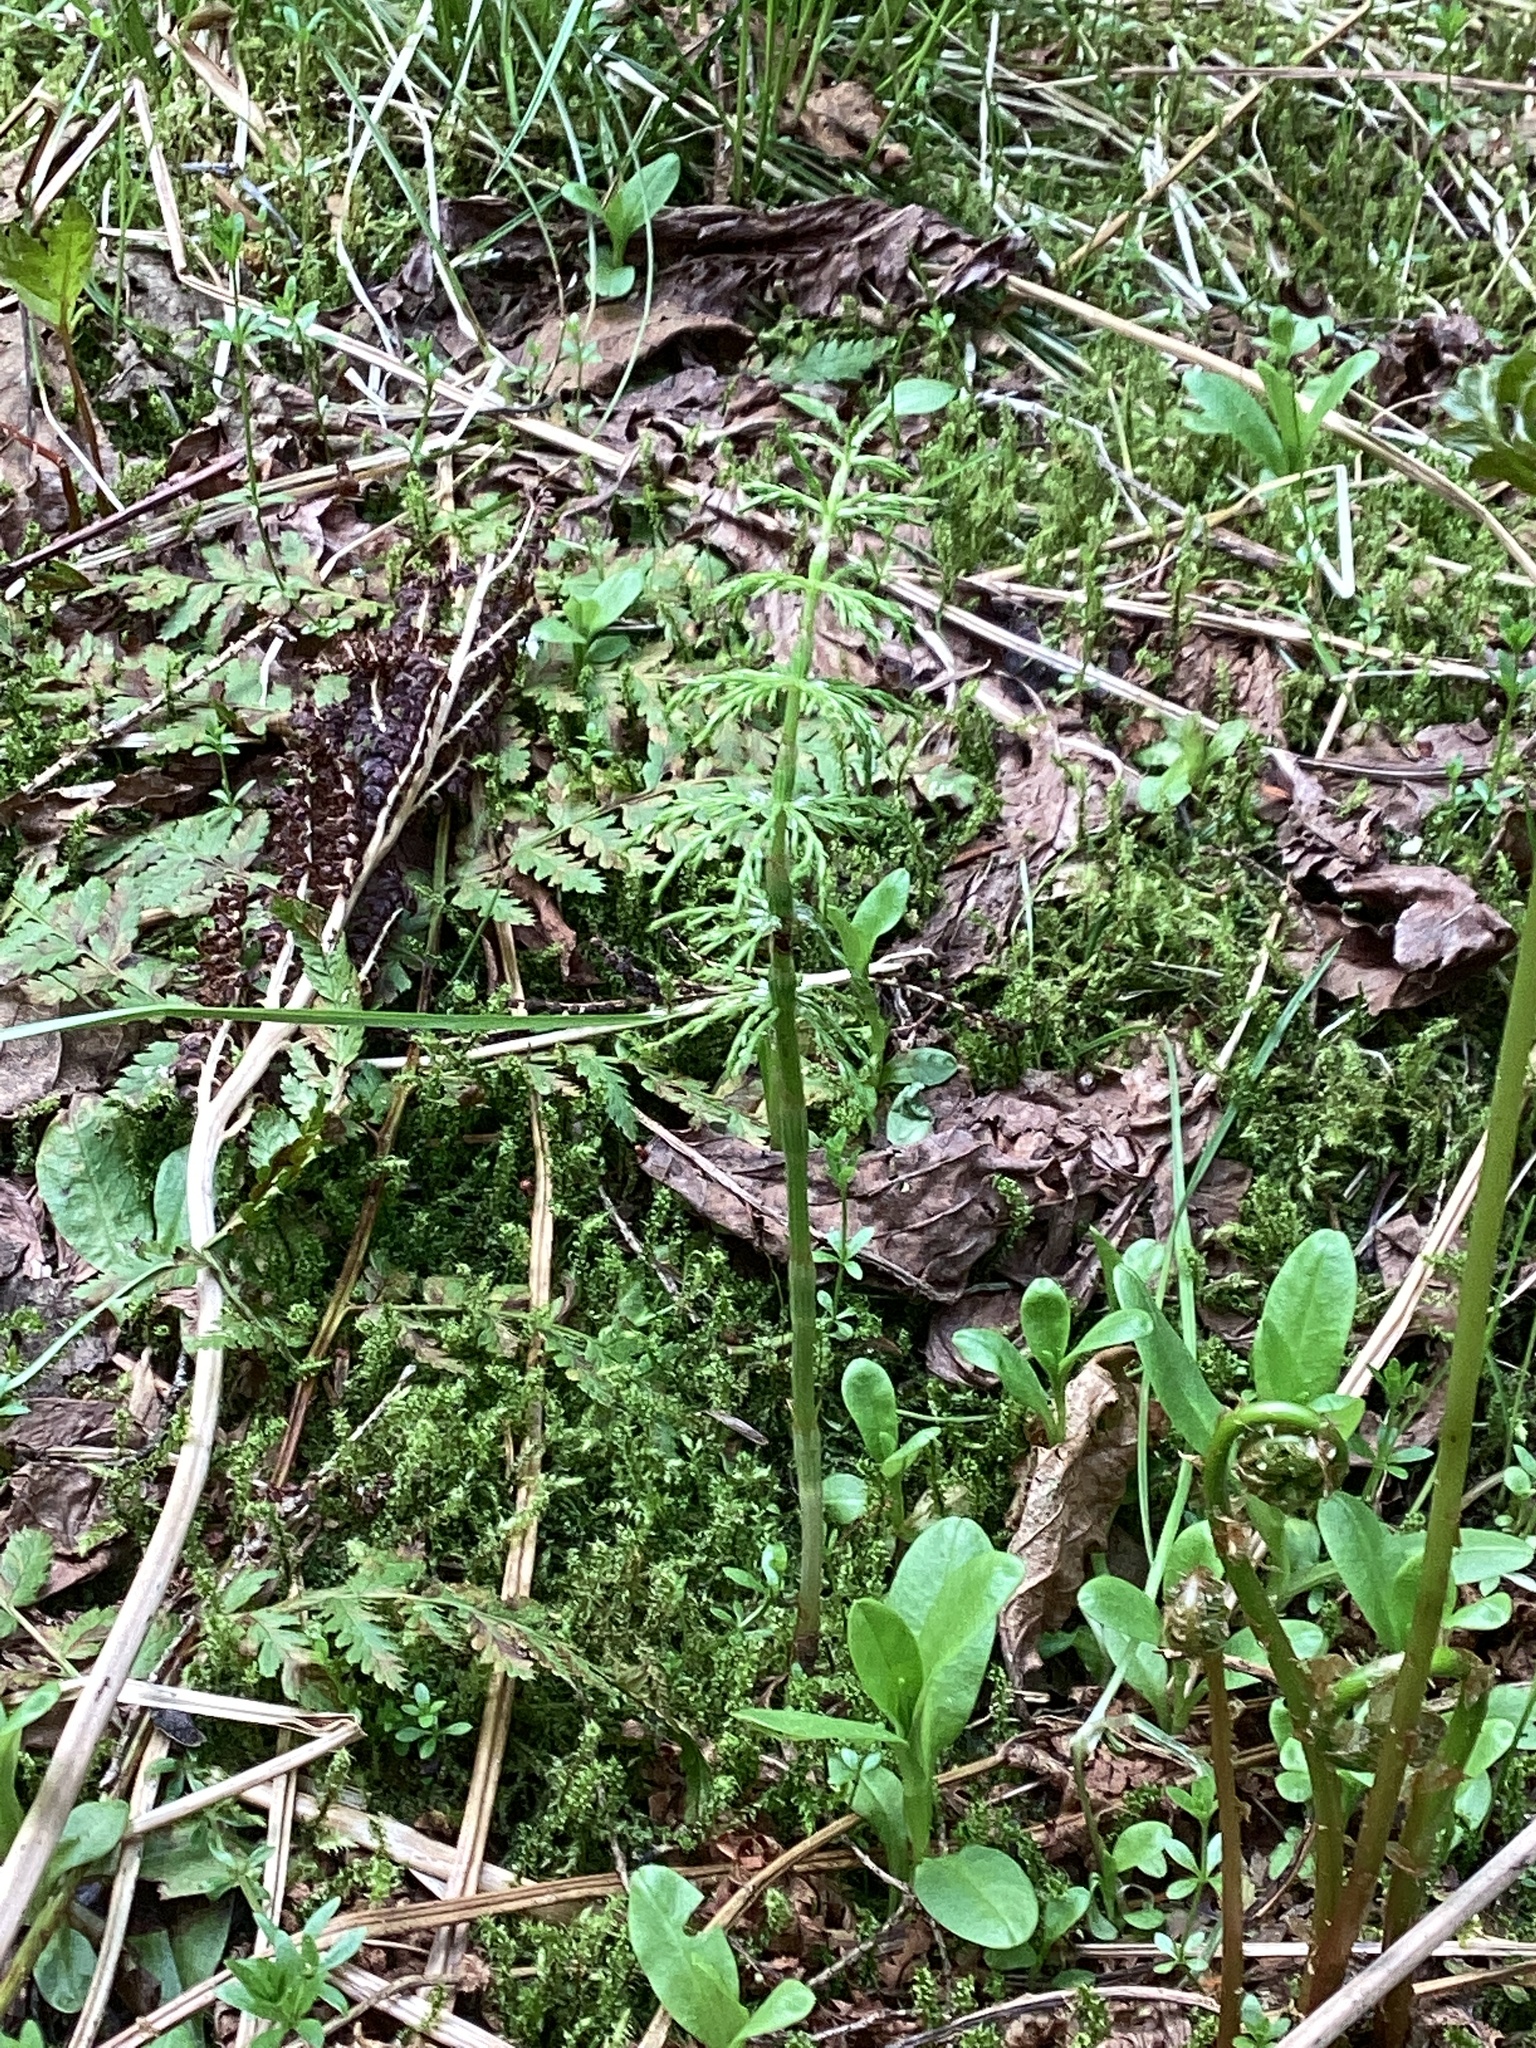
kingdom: Plantae
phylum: Tracheophyta
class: Polypodiopsida
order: Equisetales
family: Equisetaceae
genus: Equisetum
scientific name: Equisetum sylvaticum
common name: Wood horsetail
